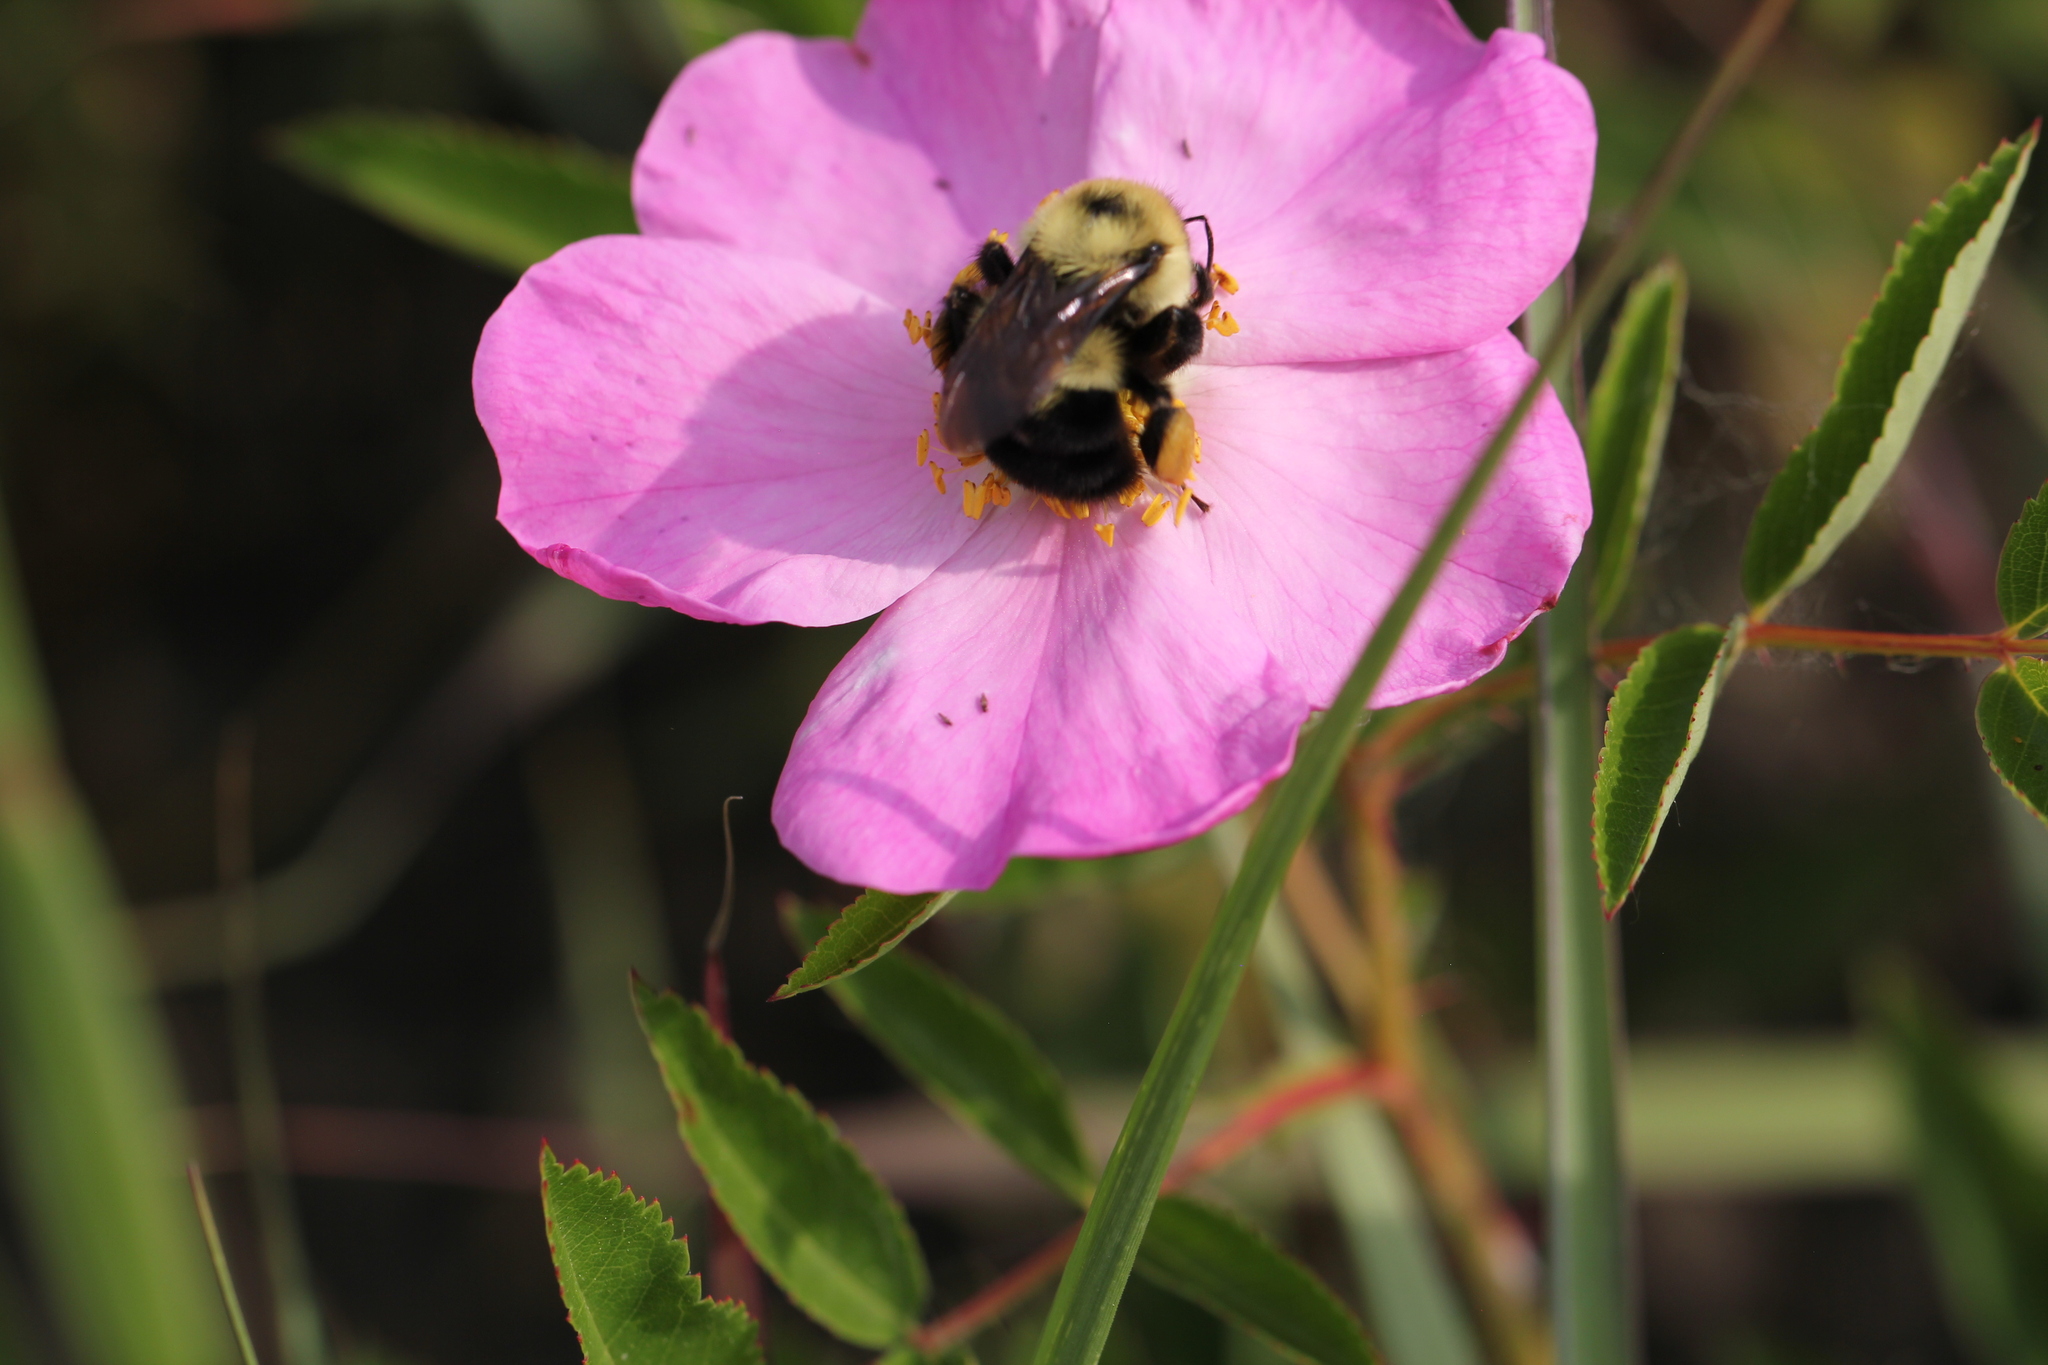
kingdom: Animalia
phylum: Arthropoda
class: Insecta
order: Hymenoptera
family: Apidae
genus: Bombus
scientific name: Bombus bimaculatus
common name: Two-spotted bumble bee
